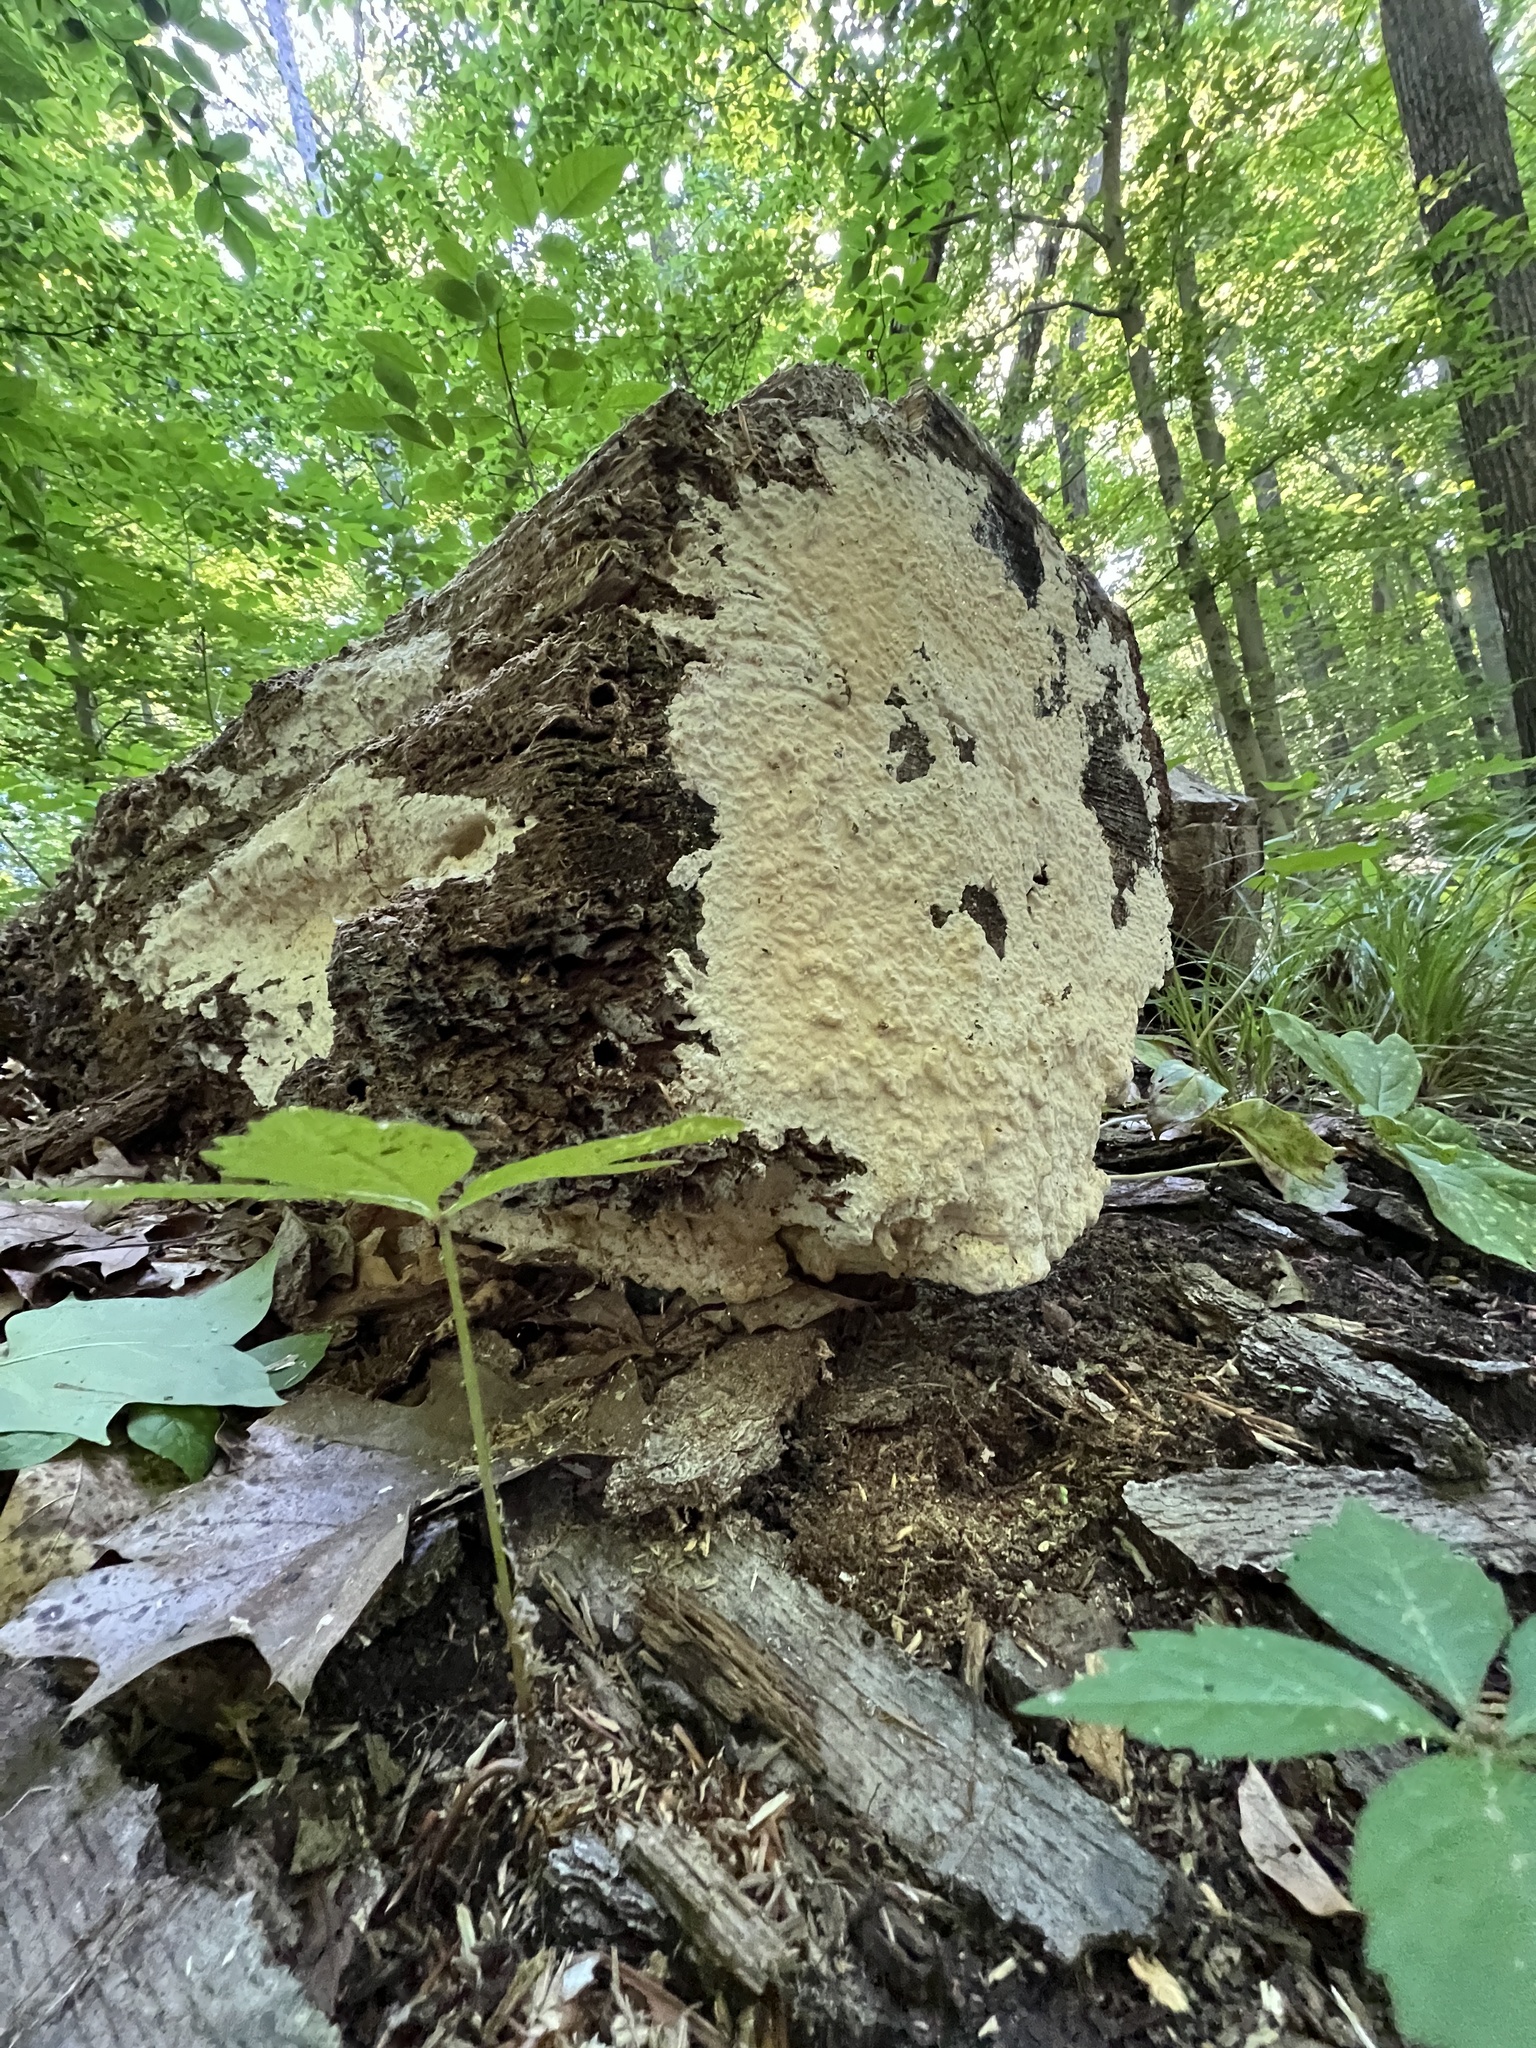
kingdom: Fungi
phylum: Basidiomycota
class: Agaricomycetes
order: Polyporales
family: Polyporaceae
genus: Yuchengia
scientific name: Yuchengia narymica
